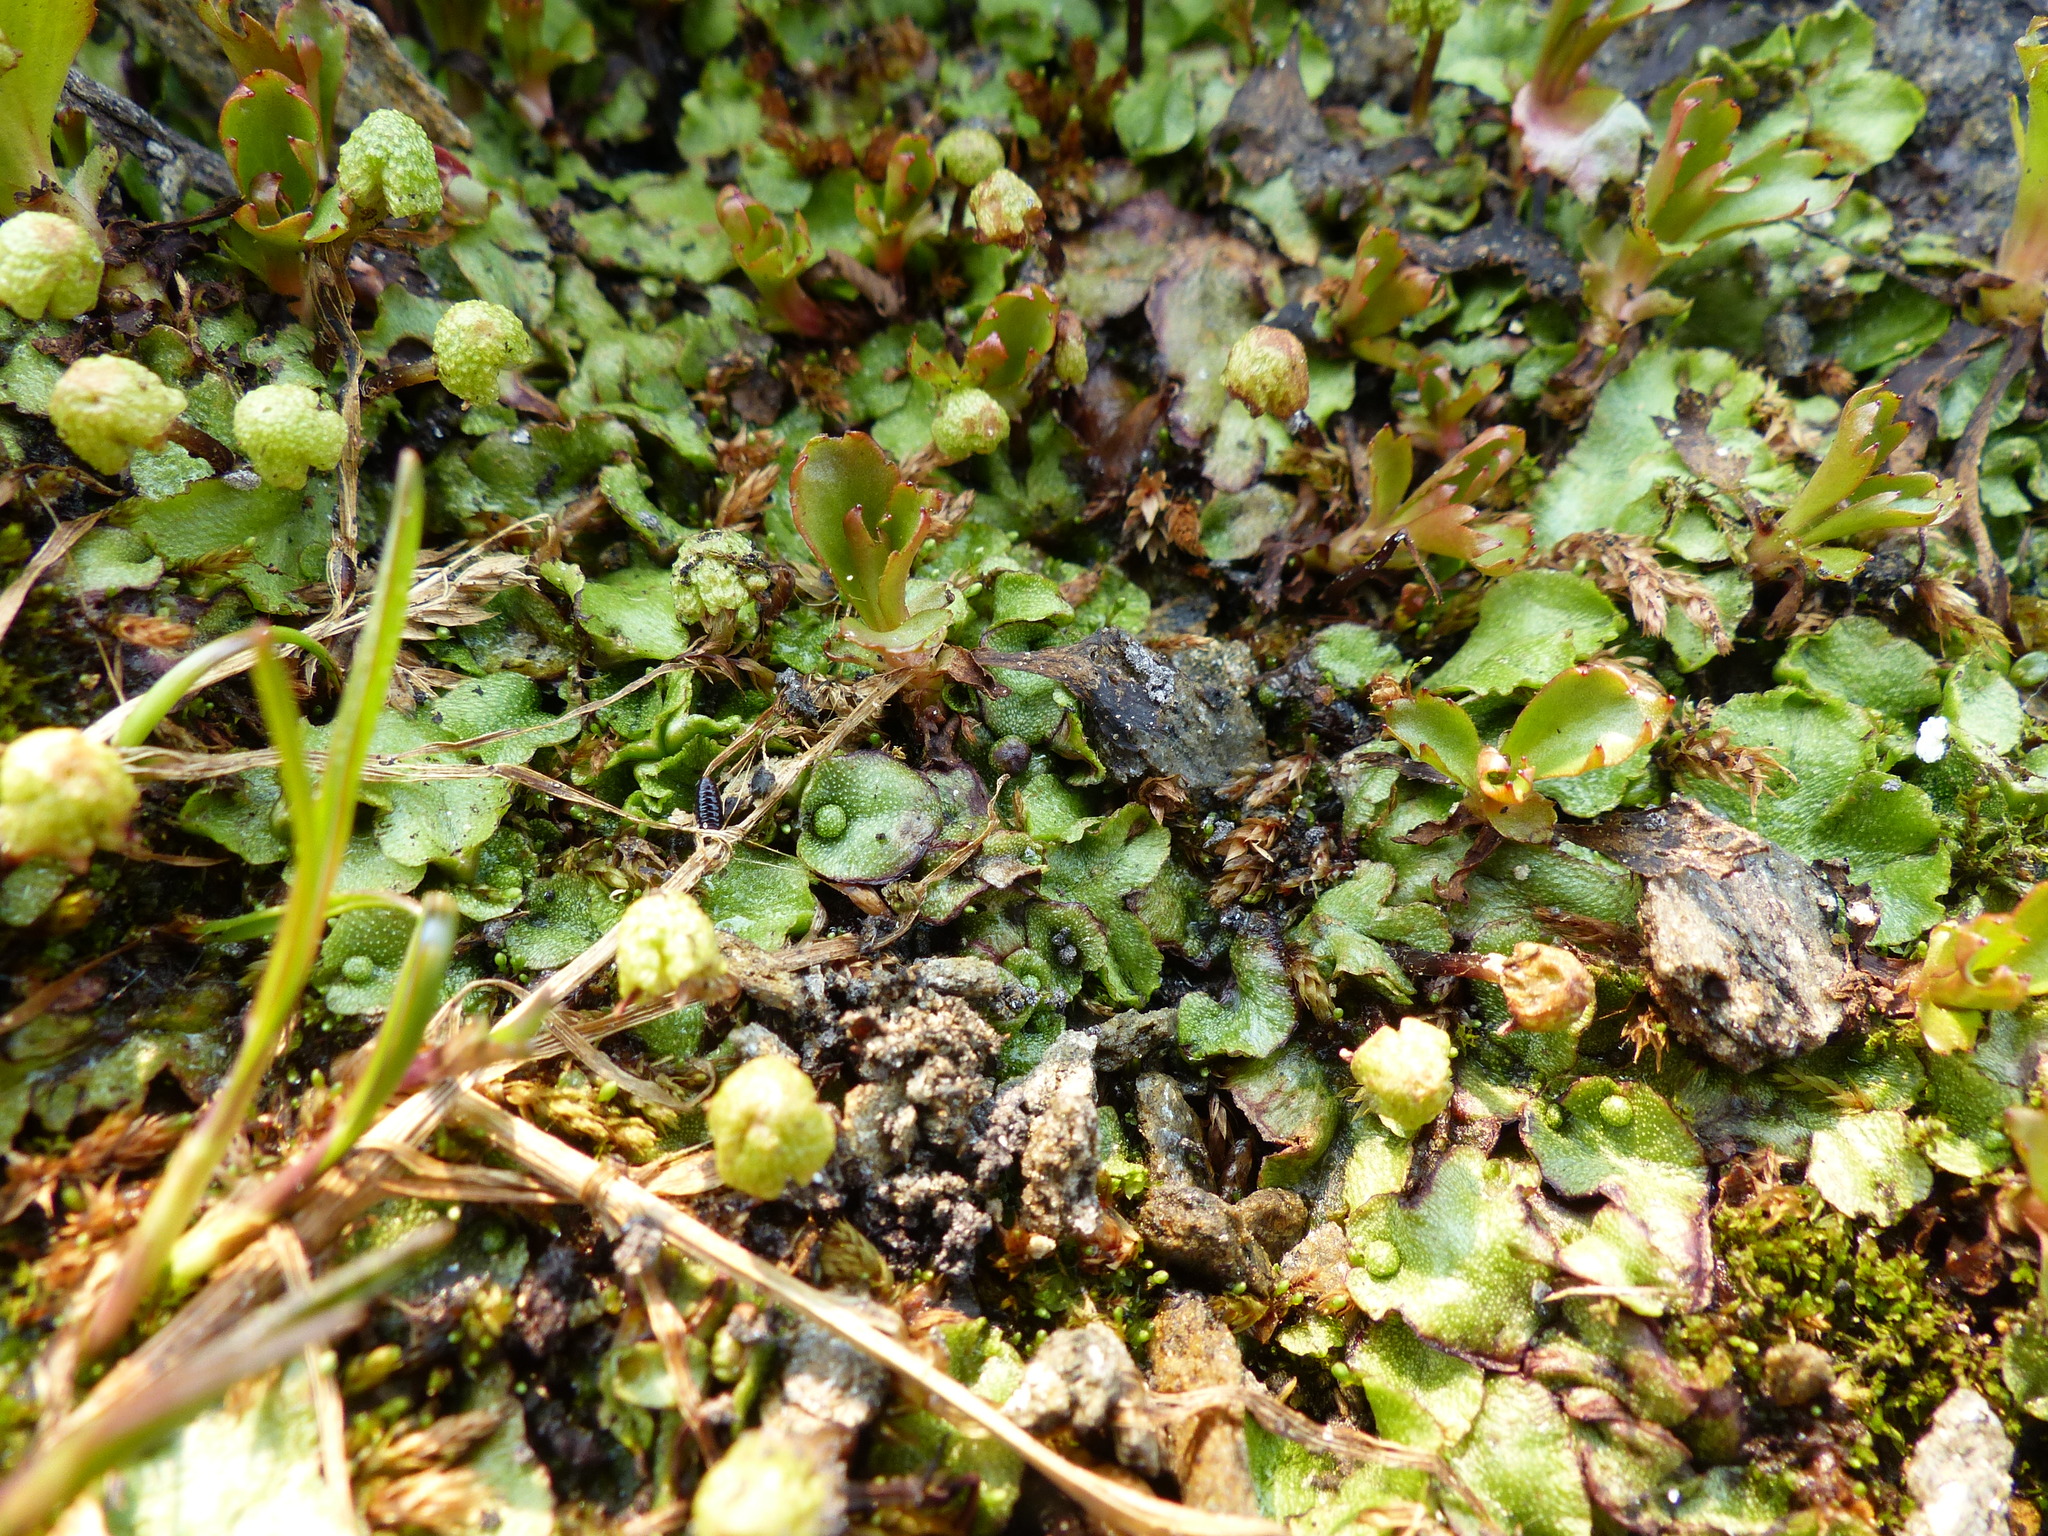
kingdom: Plantae
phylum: Marchantiophyta
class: Marchantiopsida
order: Marchantiales
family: Aytoniaceae
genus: Asterella
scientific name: Asterella lindenbergiana
